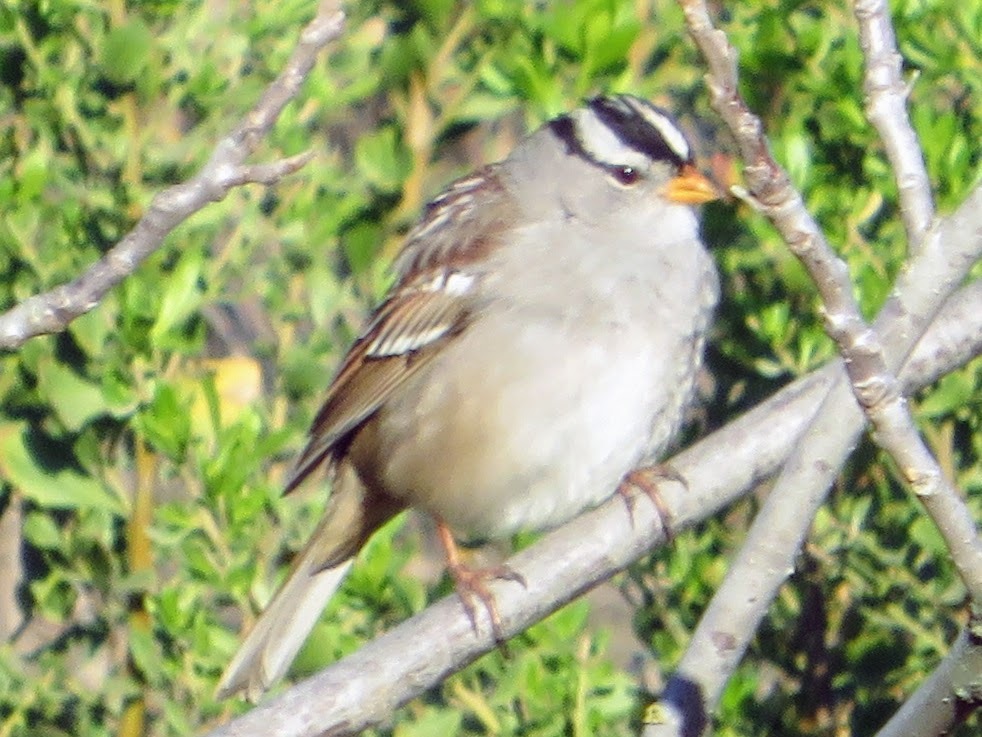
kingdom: Animalia
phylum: Chordata
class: Aves
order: Passeriformes
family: Passerellidae
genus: Zonotrichia
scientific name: Zonotrichia leucophrys
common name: White-crowned sparrow
